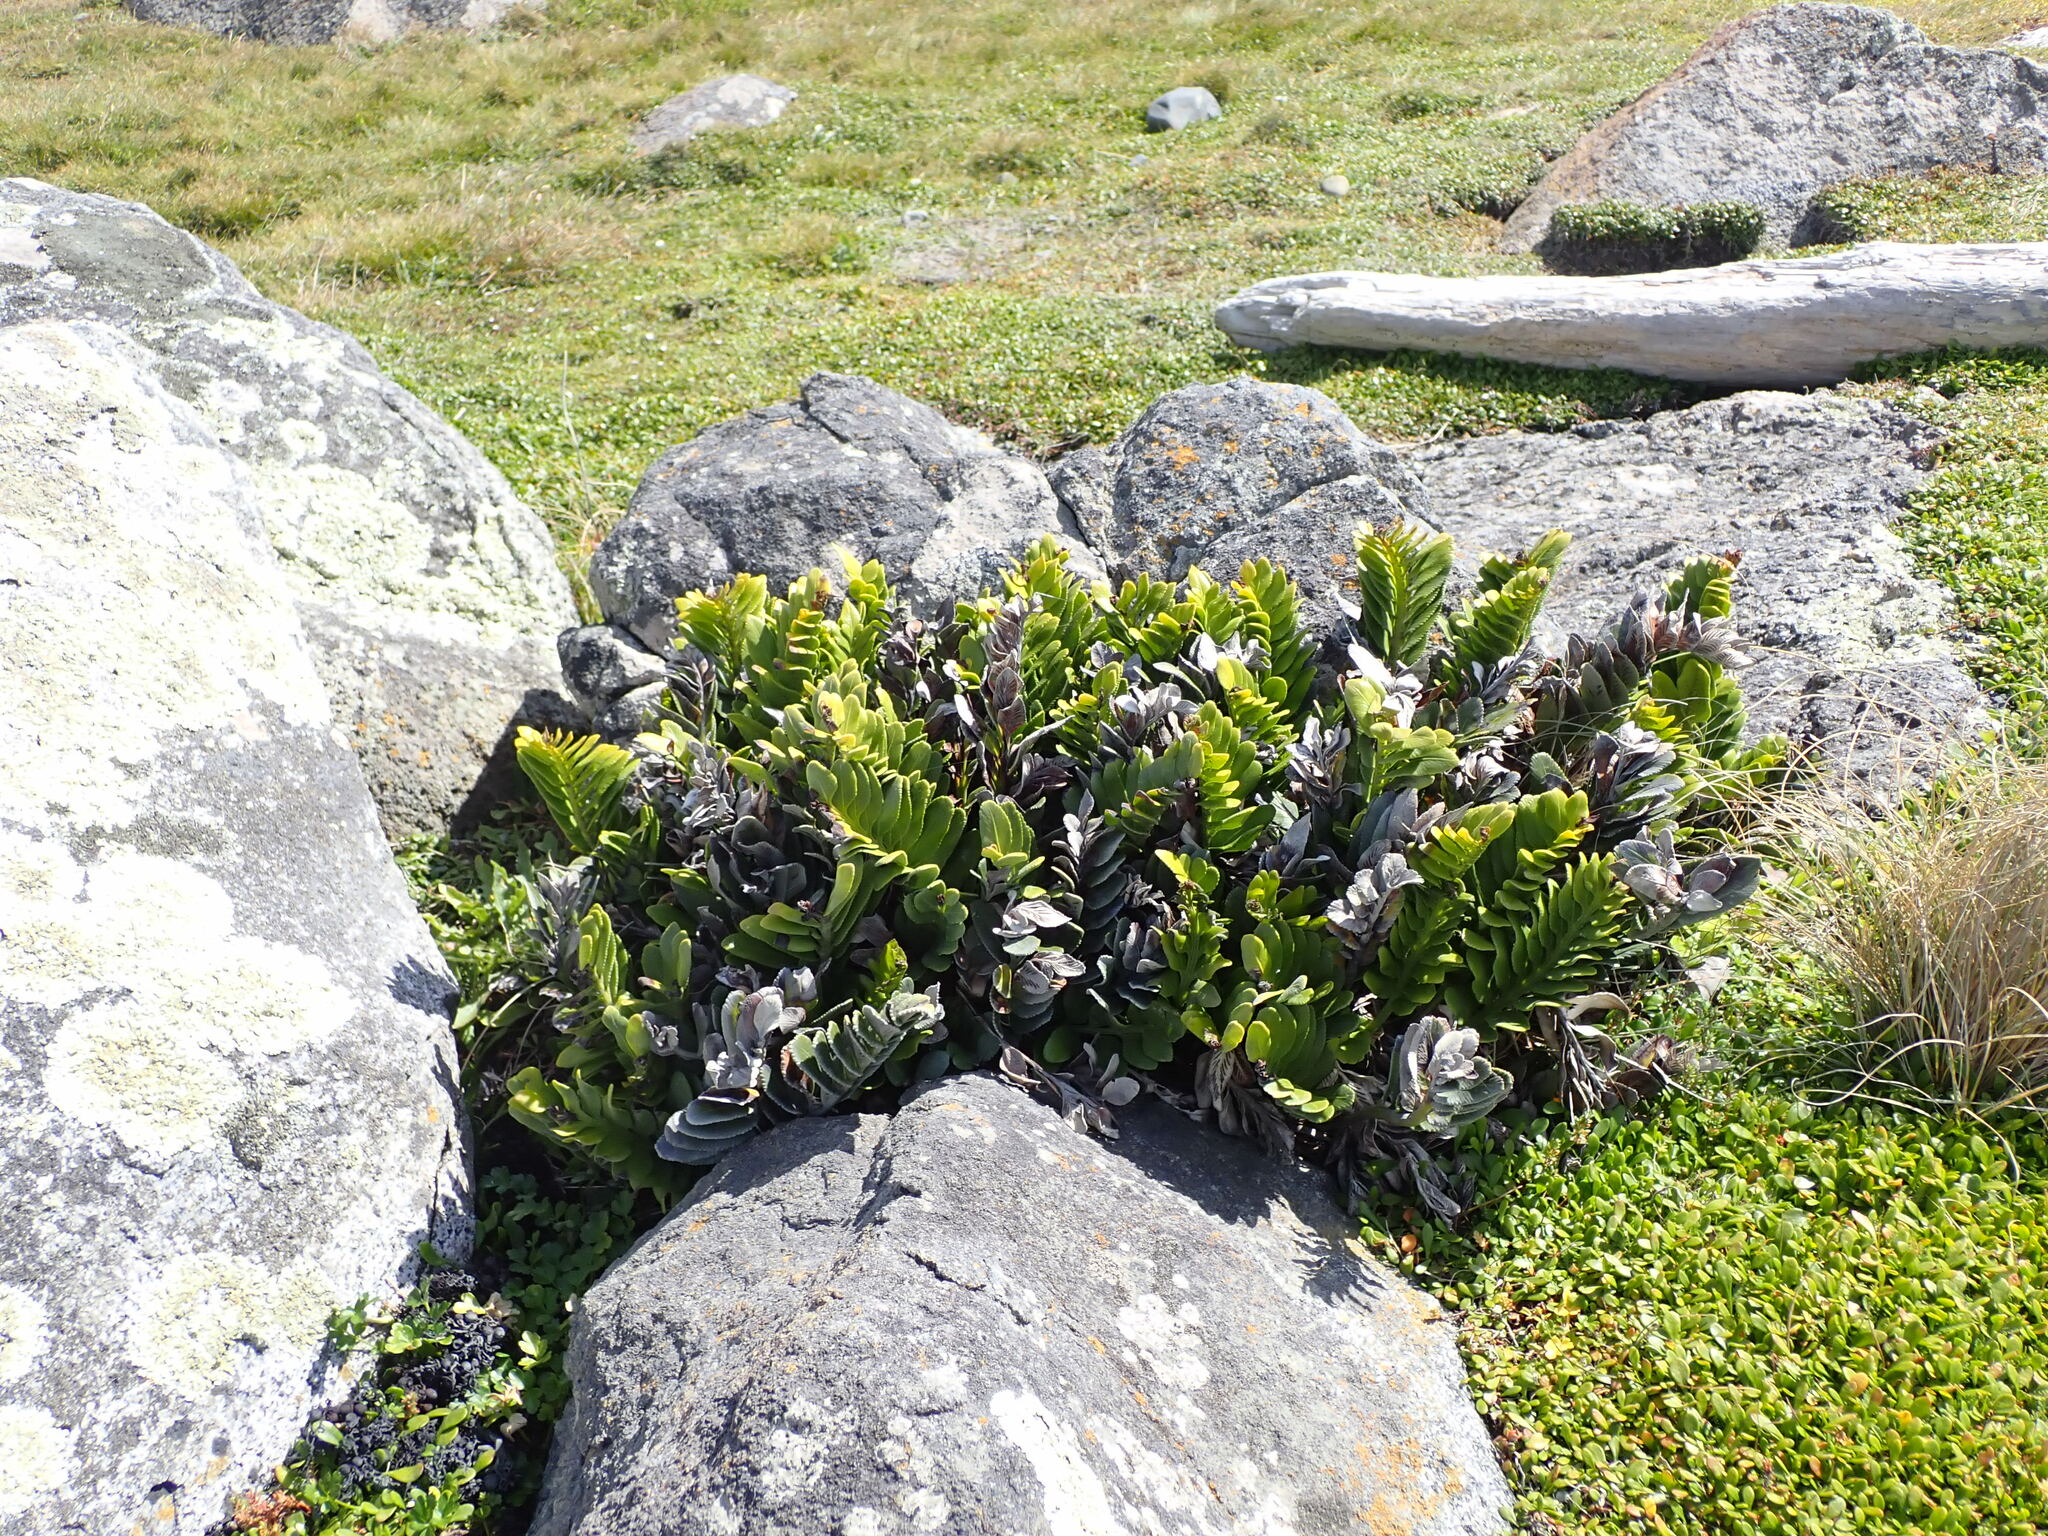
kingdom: Plantae
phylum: Tracheophyta
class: Polypodiopsida
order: Polypodiales
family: Aspleniaceae
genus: Asplenium
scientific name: Asplenium obtusatum
